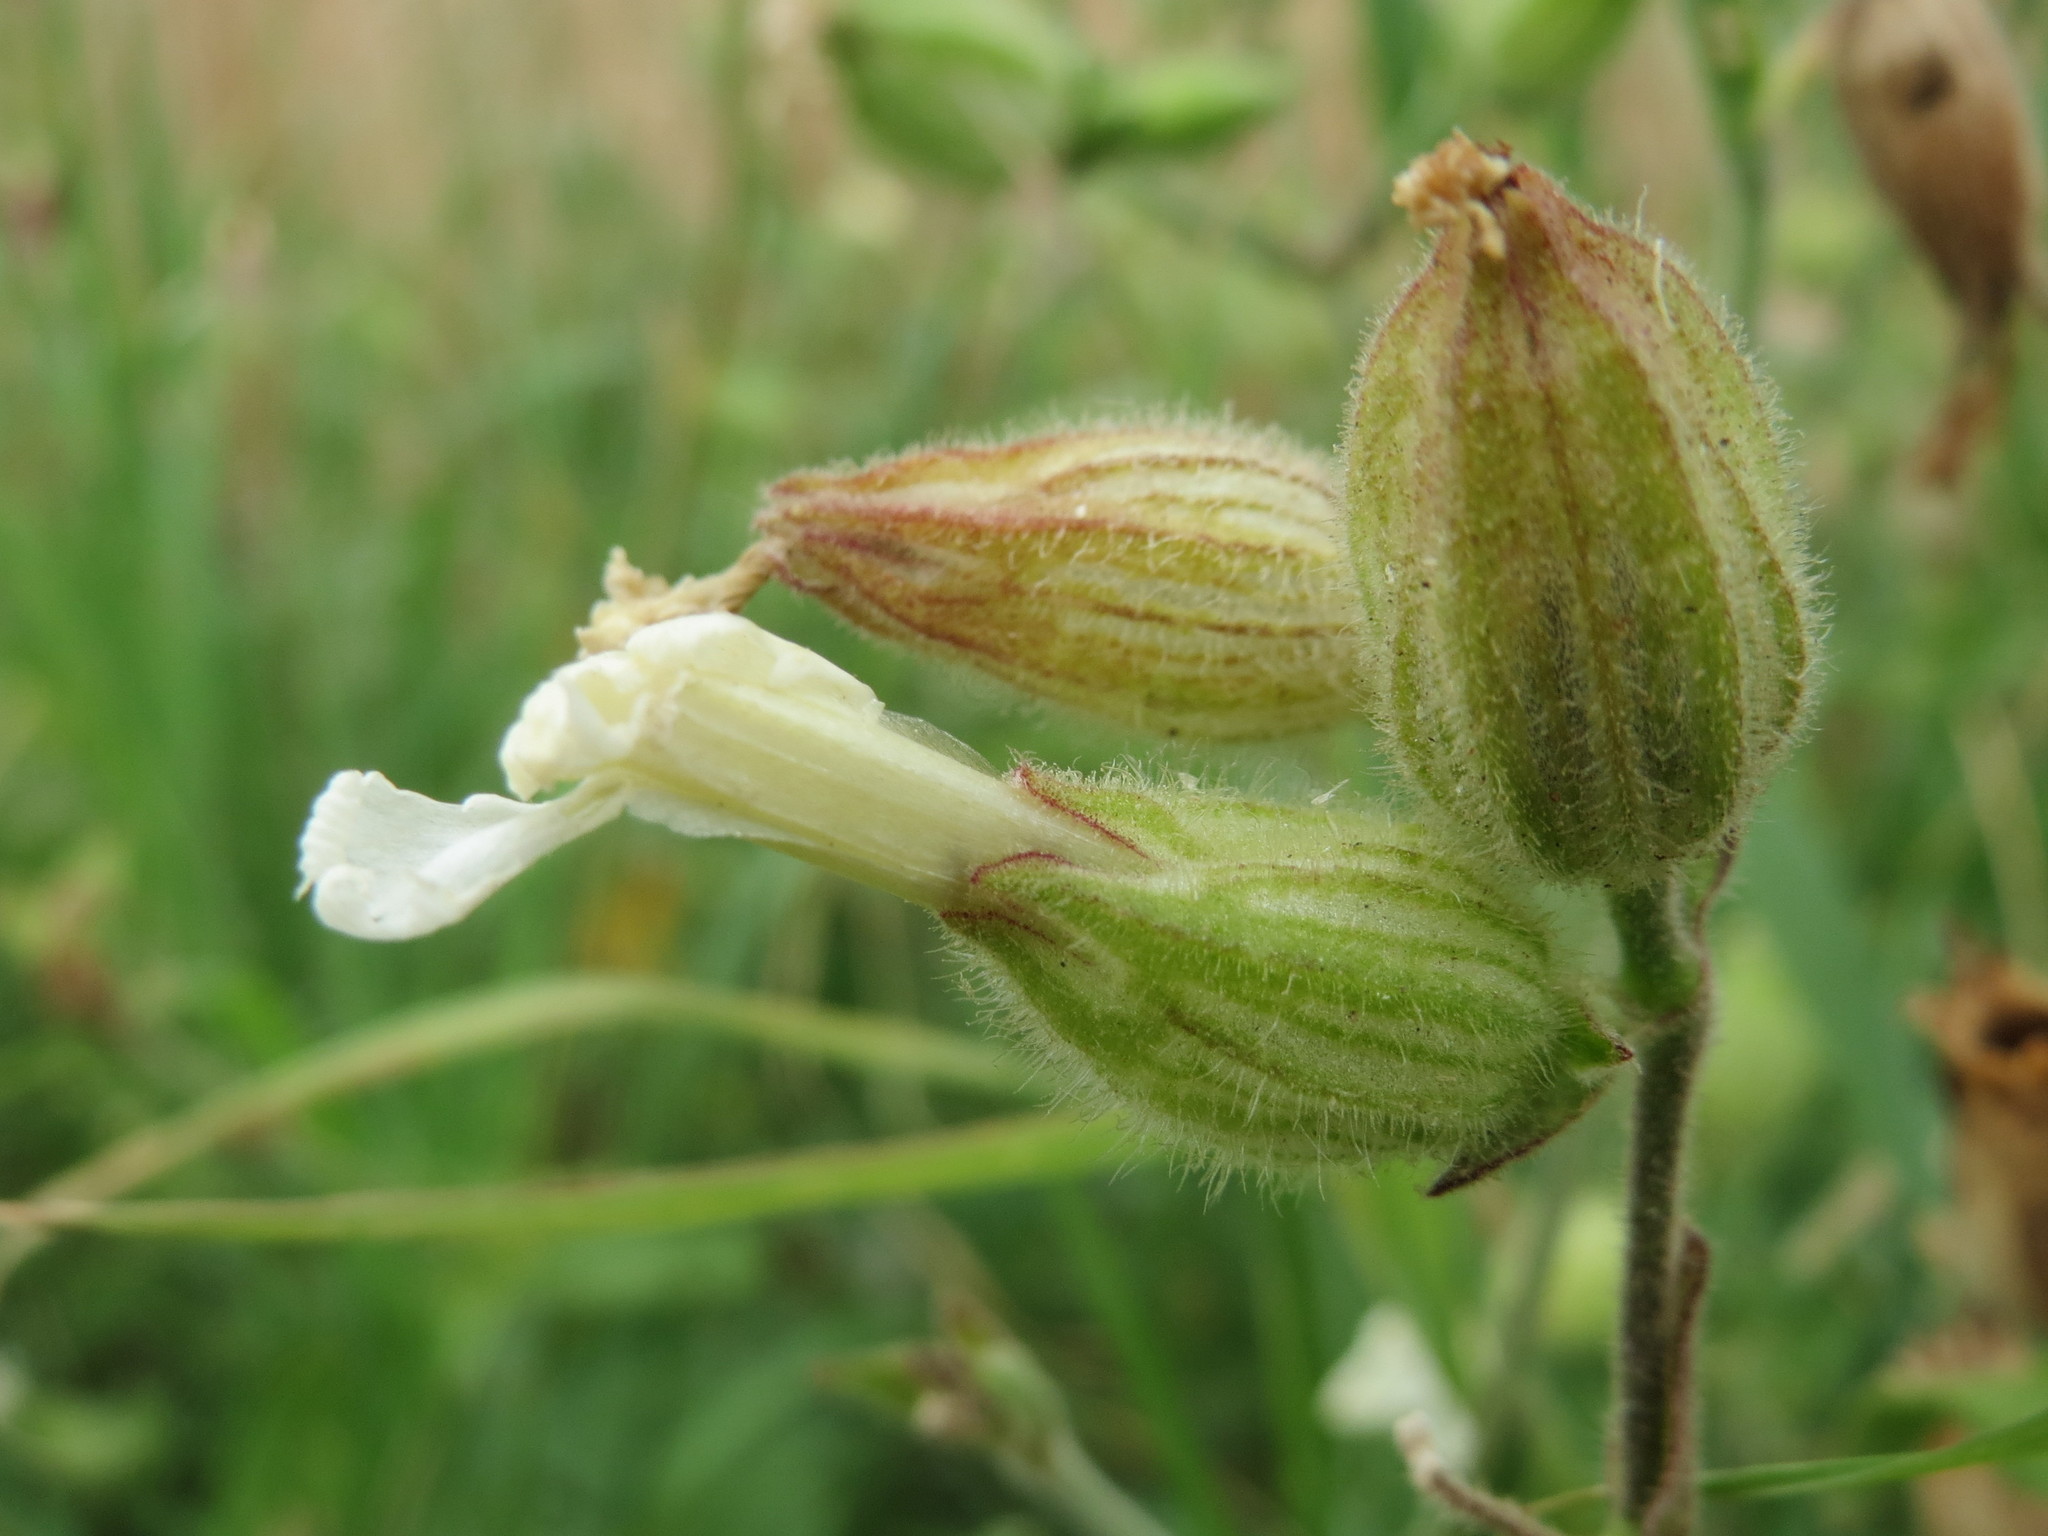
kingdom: Plantae
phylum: Tracheophyta
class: Magnoliopsida
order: Caryophyllales
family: Caryophyllaceae
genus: Silene
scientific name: Silene latifolia
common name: White campion
